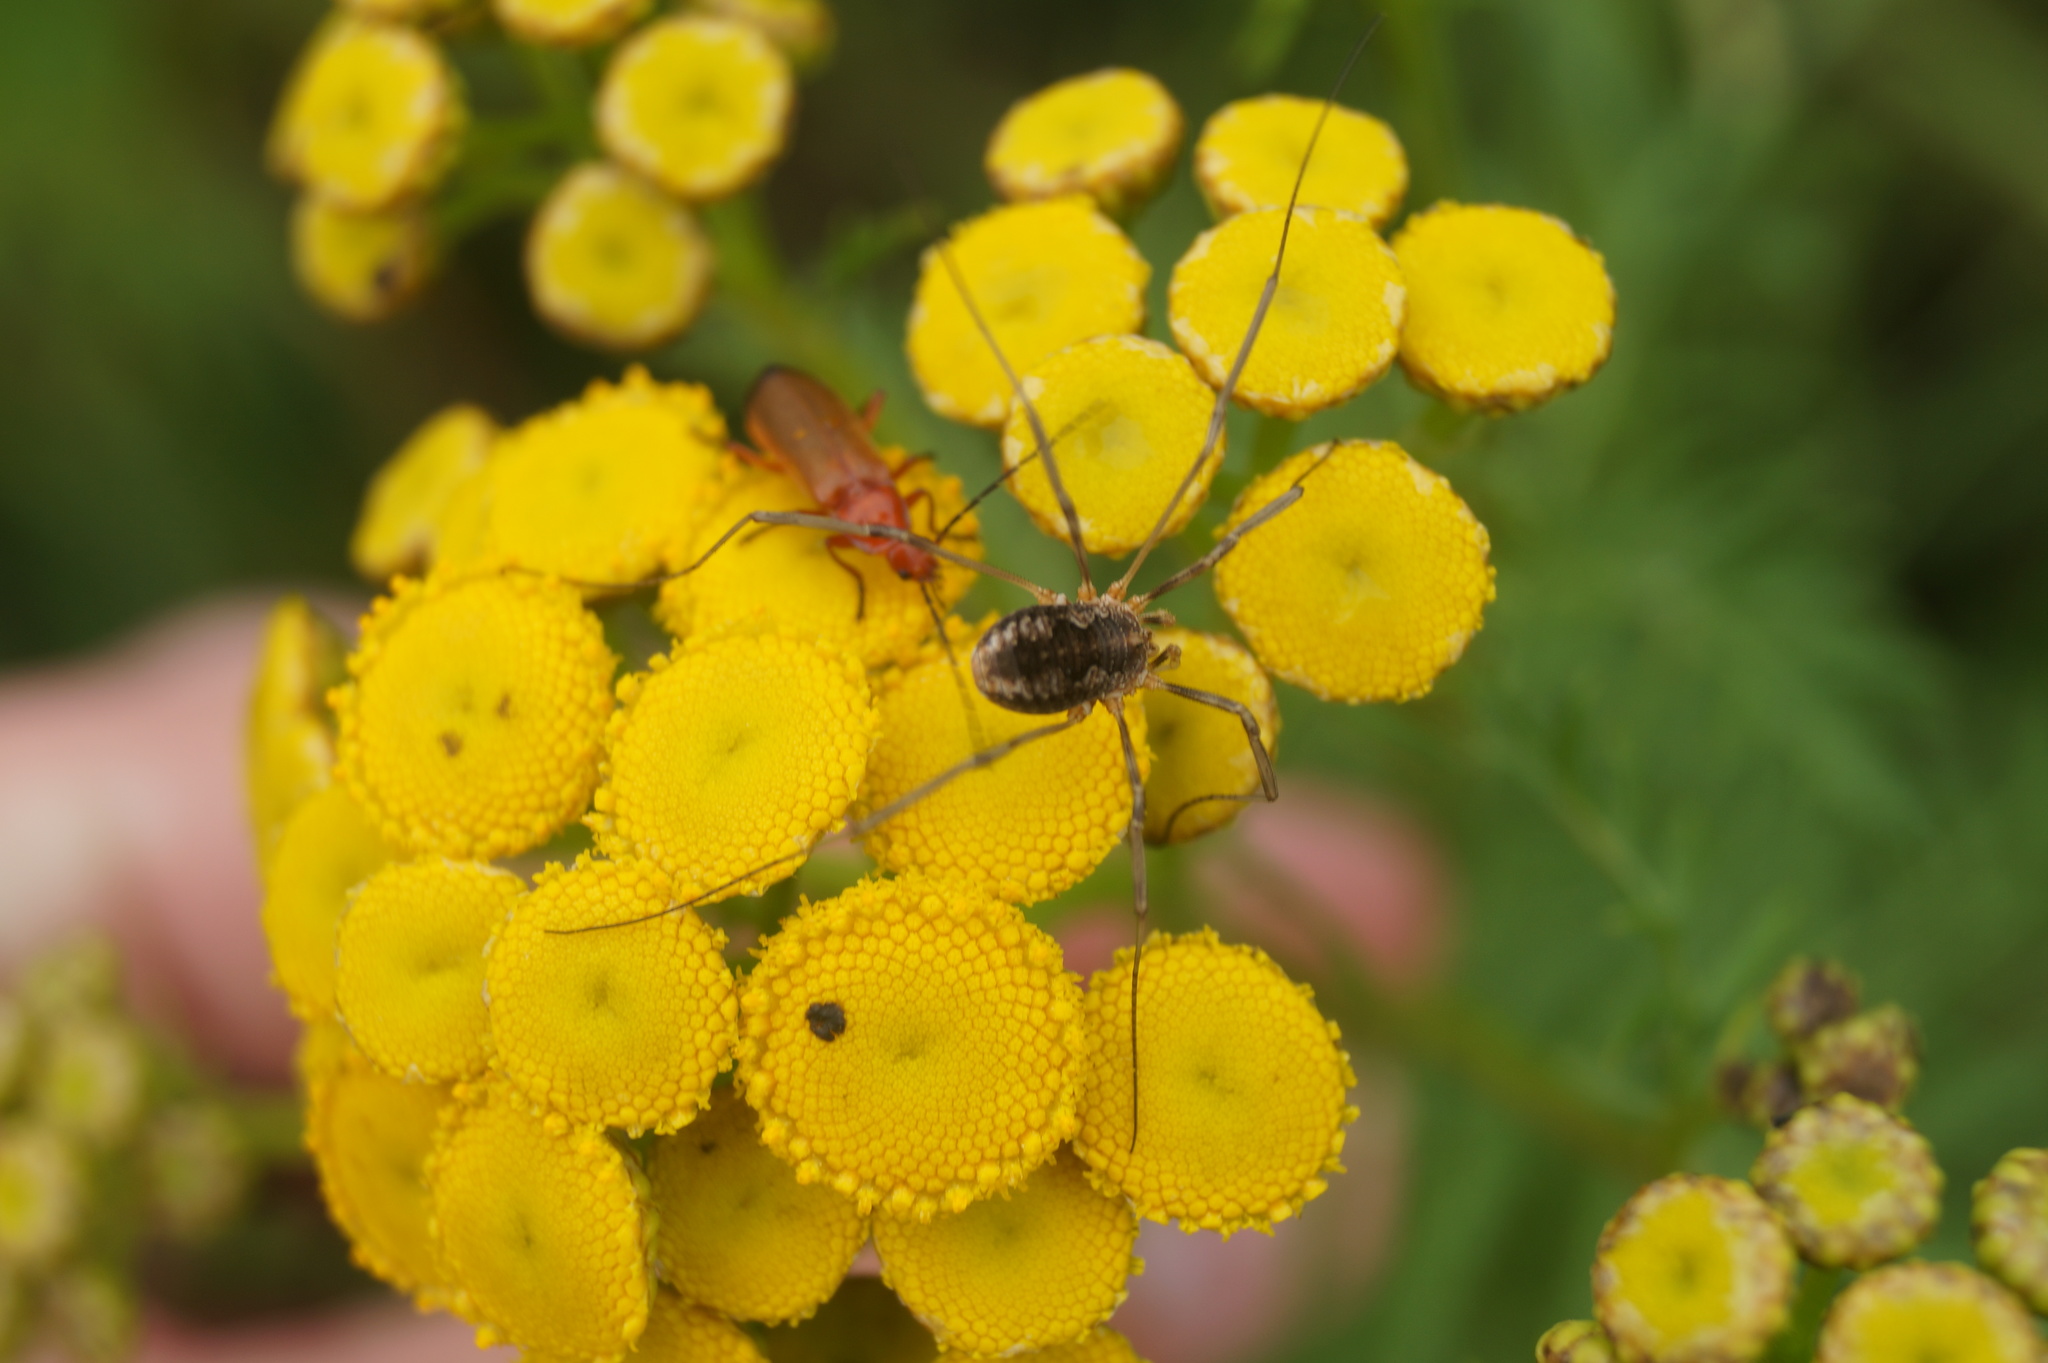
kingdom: Animalia
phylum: Arthropoda
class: Arachnida
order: Opiliones
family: Phalangiidae
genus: Phalangium
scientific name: Phalangium opilio
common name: Daddy longleg
